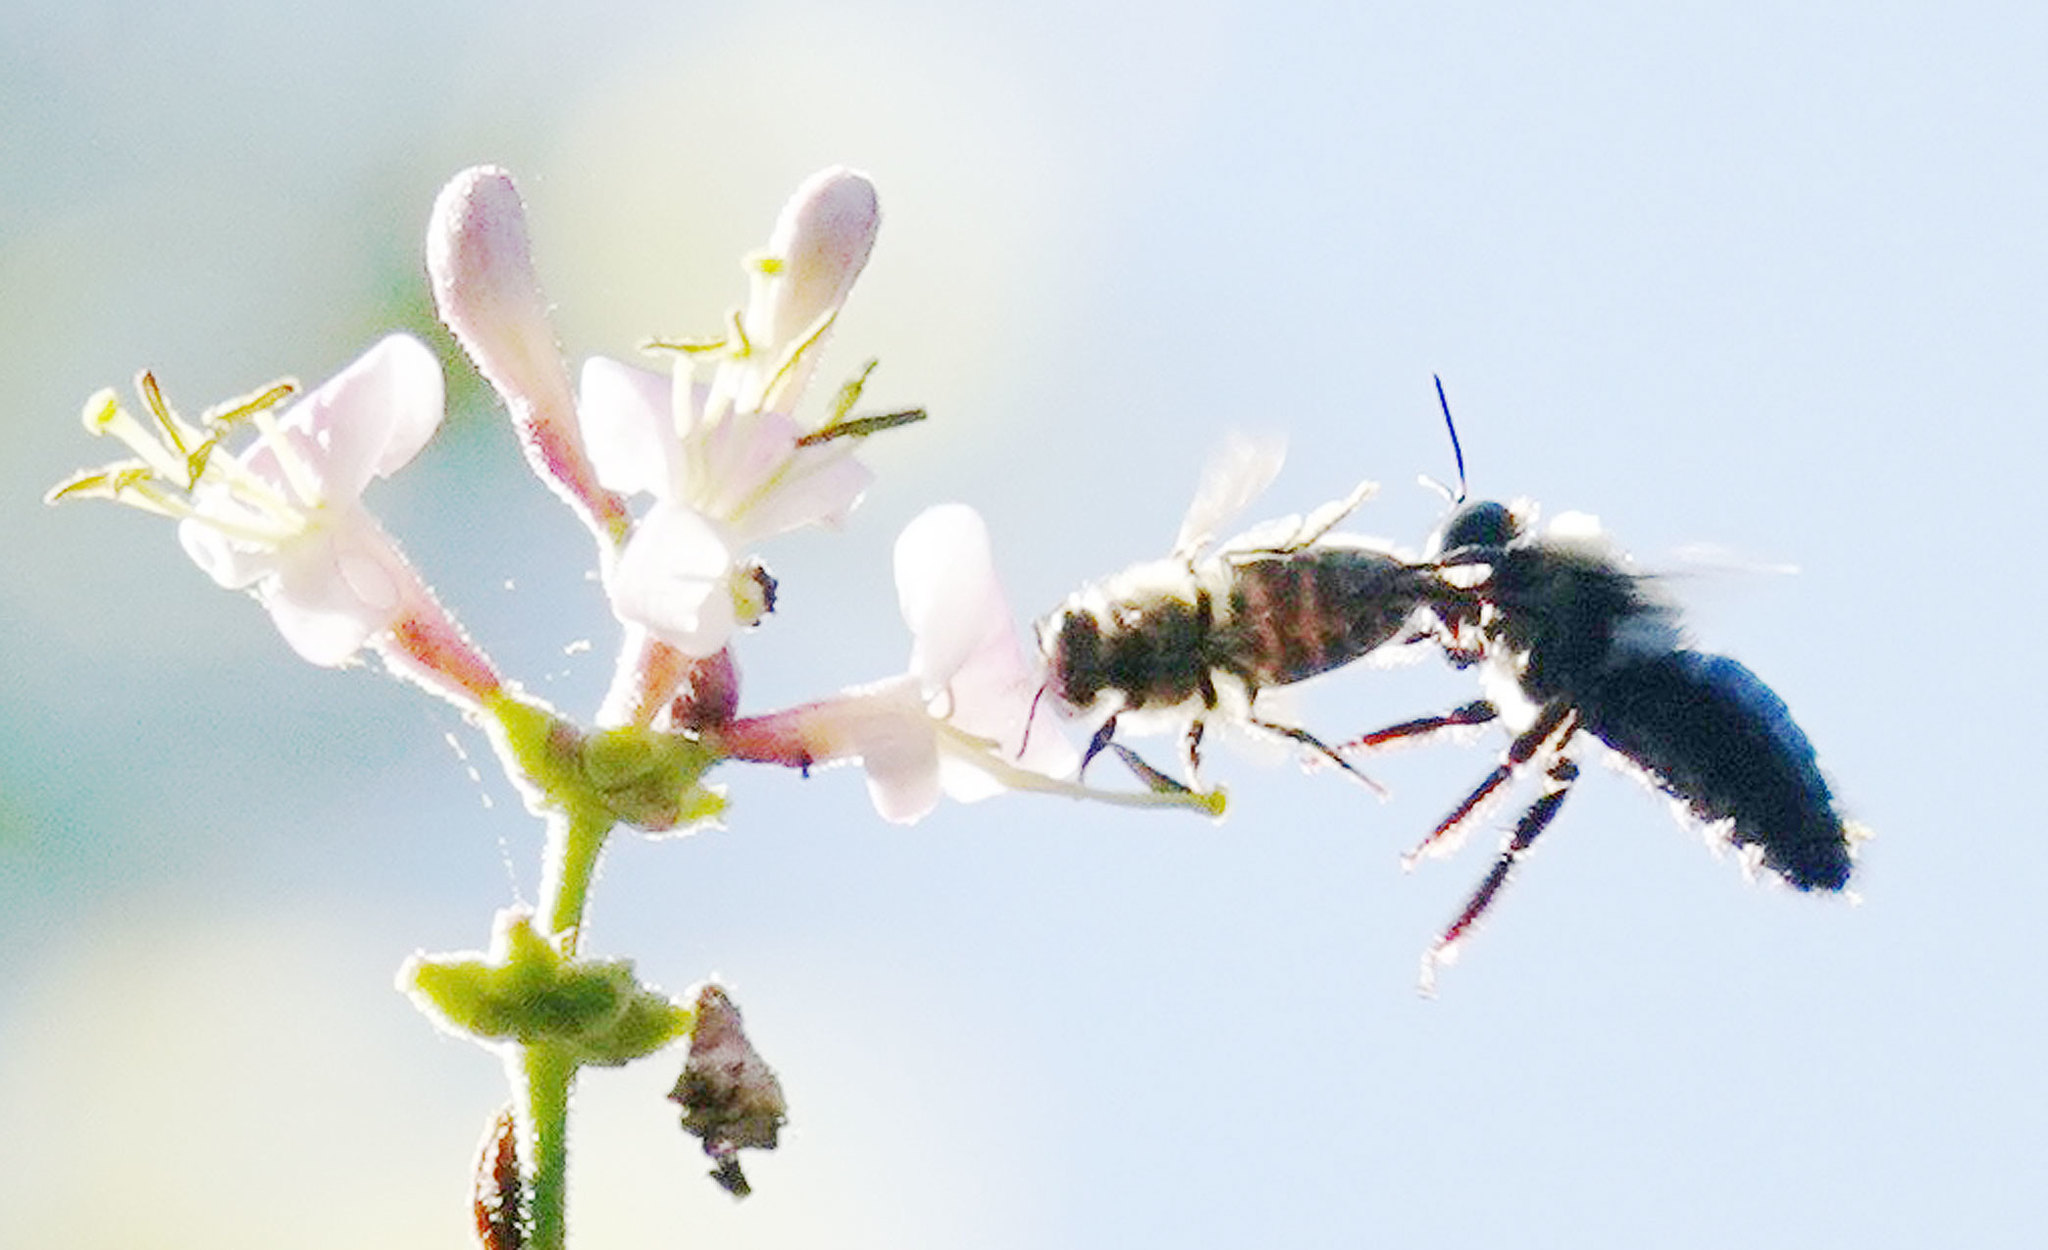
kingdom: Animalia
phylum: Arthropoda
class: Insecta
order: Hymenoptera
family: Apidae
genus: Apis
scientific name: Apis mellifera
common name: Honey bee
